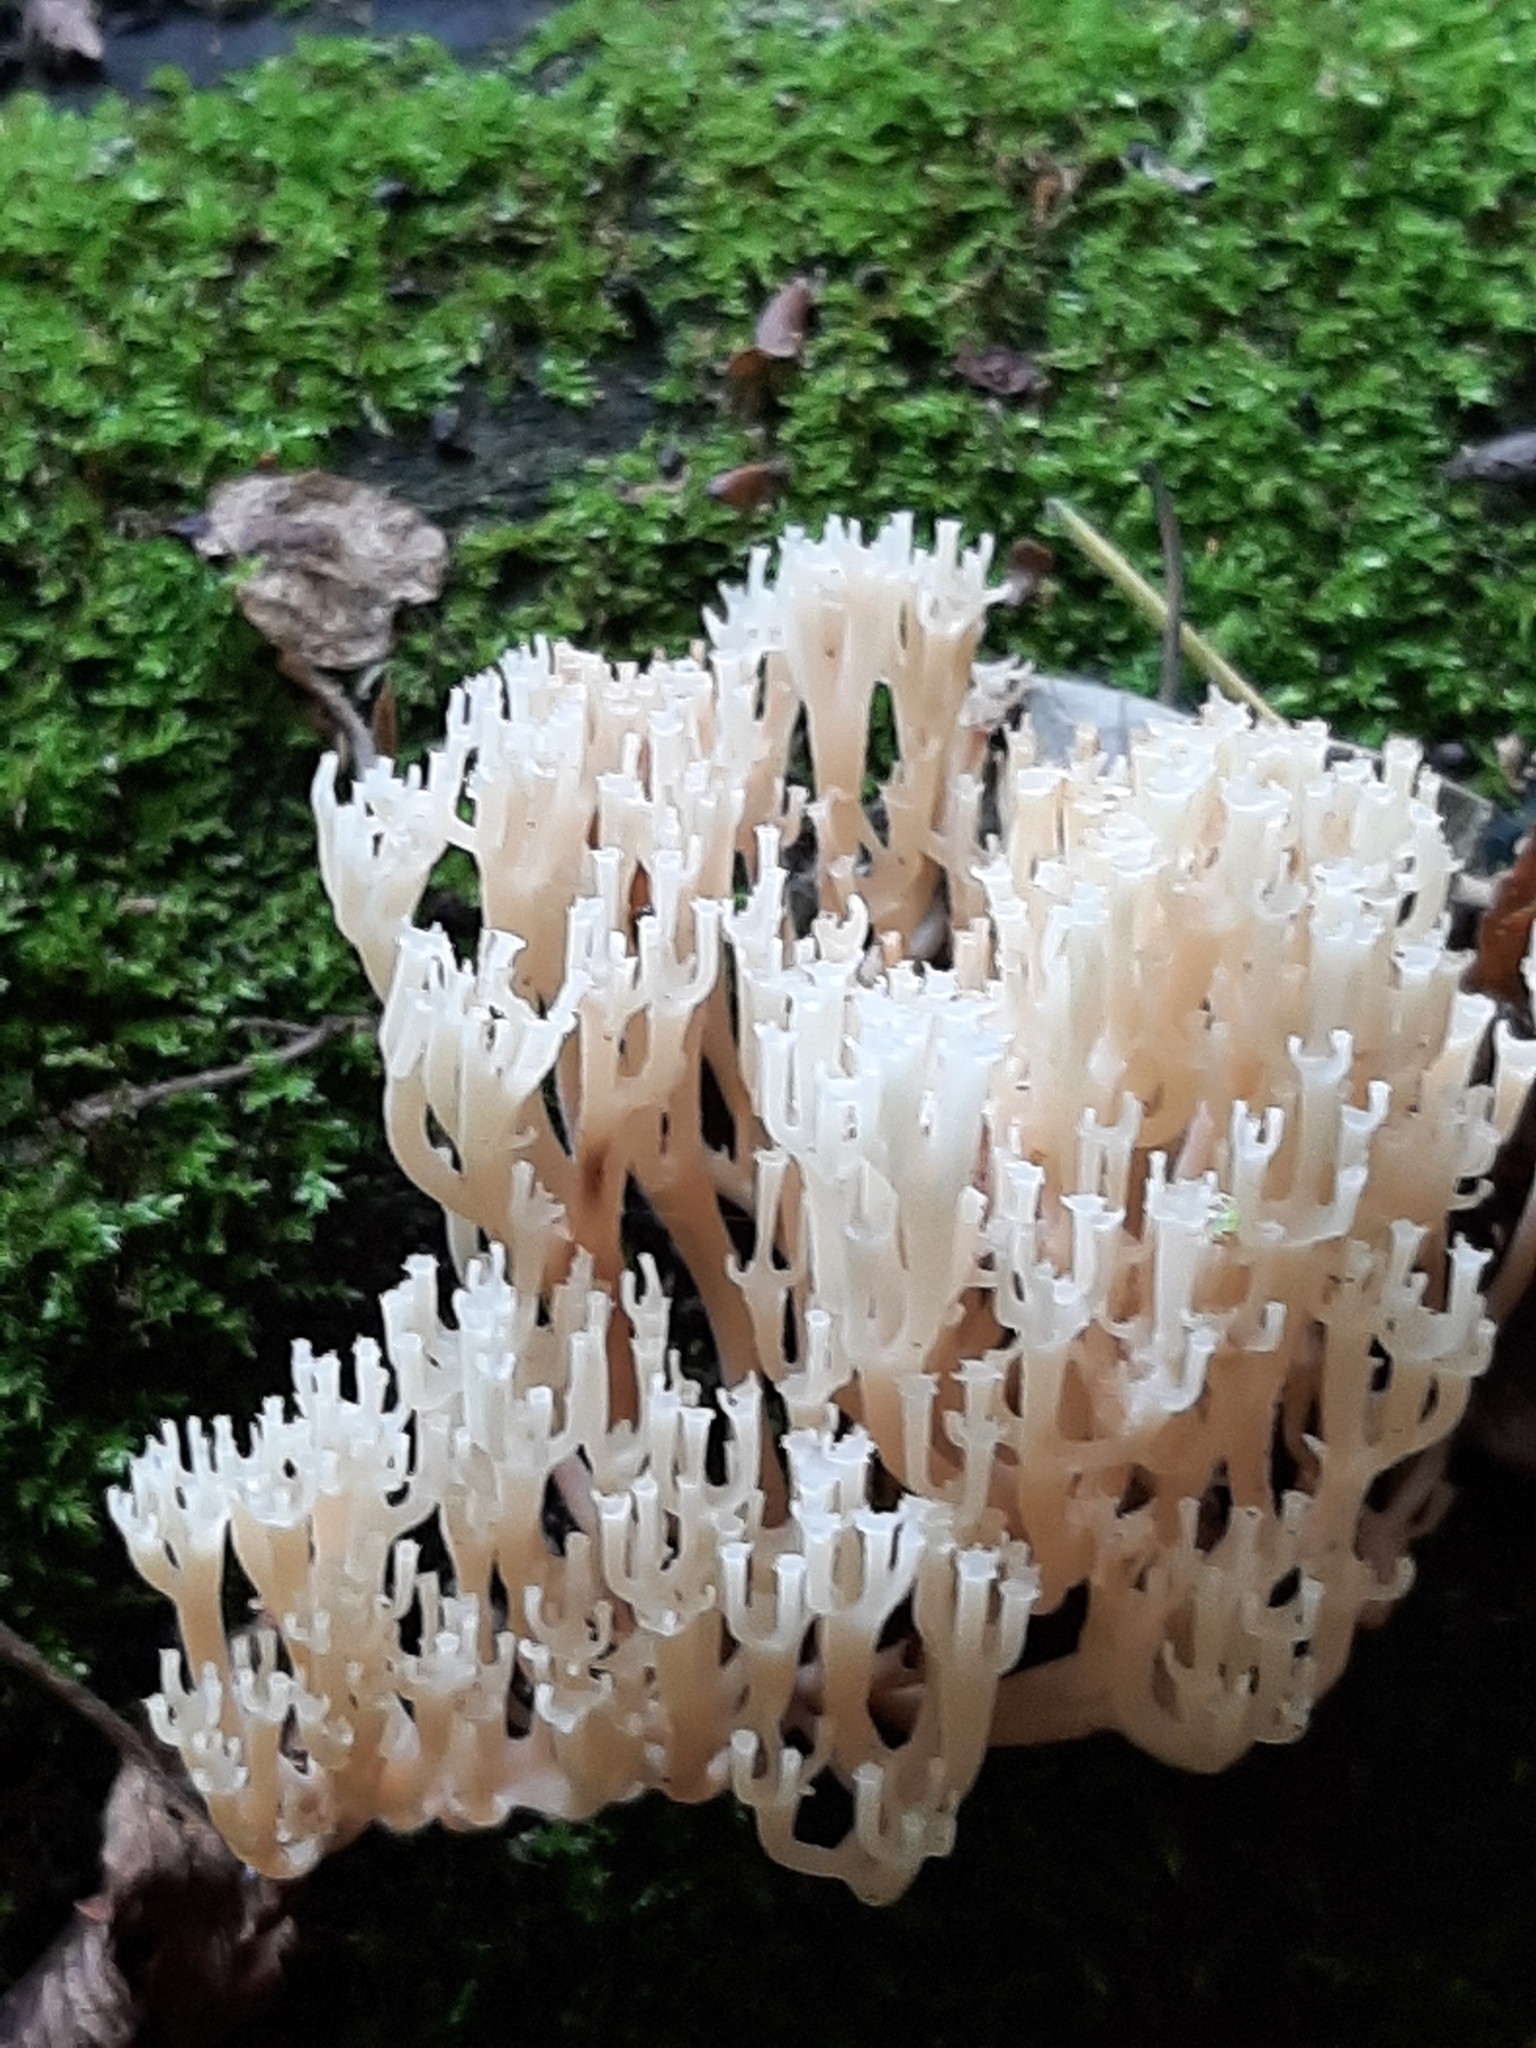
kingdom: Fungi
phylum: Basidiomycota
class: Agaricomycetes
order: Russulales
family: Auriscalpiaceae
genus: Artomyces
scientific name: Artomyces pyxidatus
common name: Crown-tipped coral fungus
